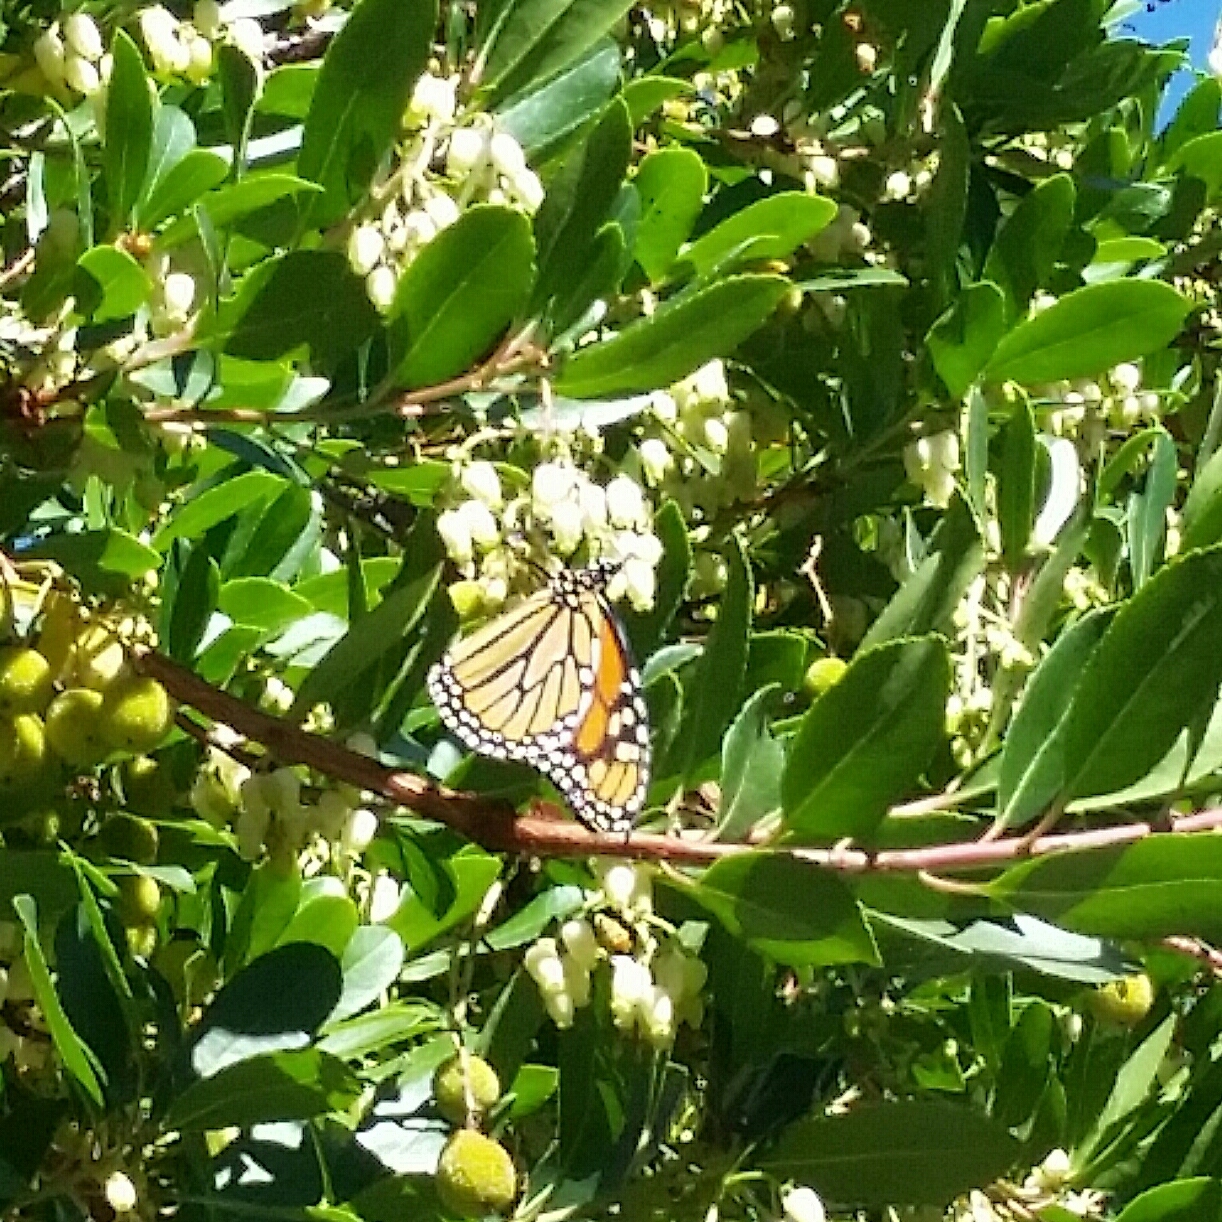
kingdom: Animalia
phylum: Arthropoda
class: Insecta
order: Lepidoptera
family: Nymphalidae
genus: Danaus
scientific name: Danaus plexippus
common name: Monarch
